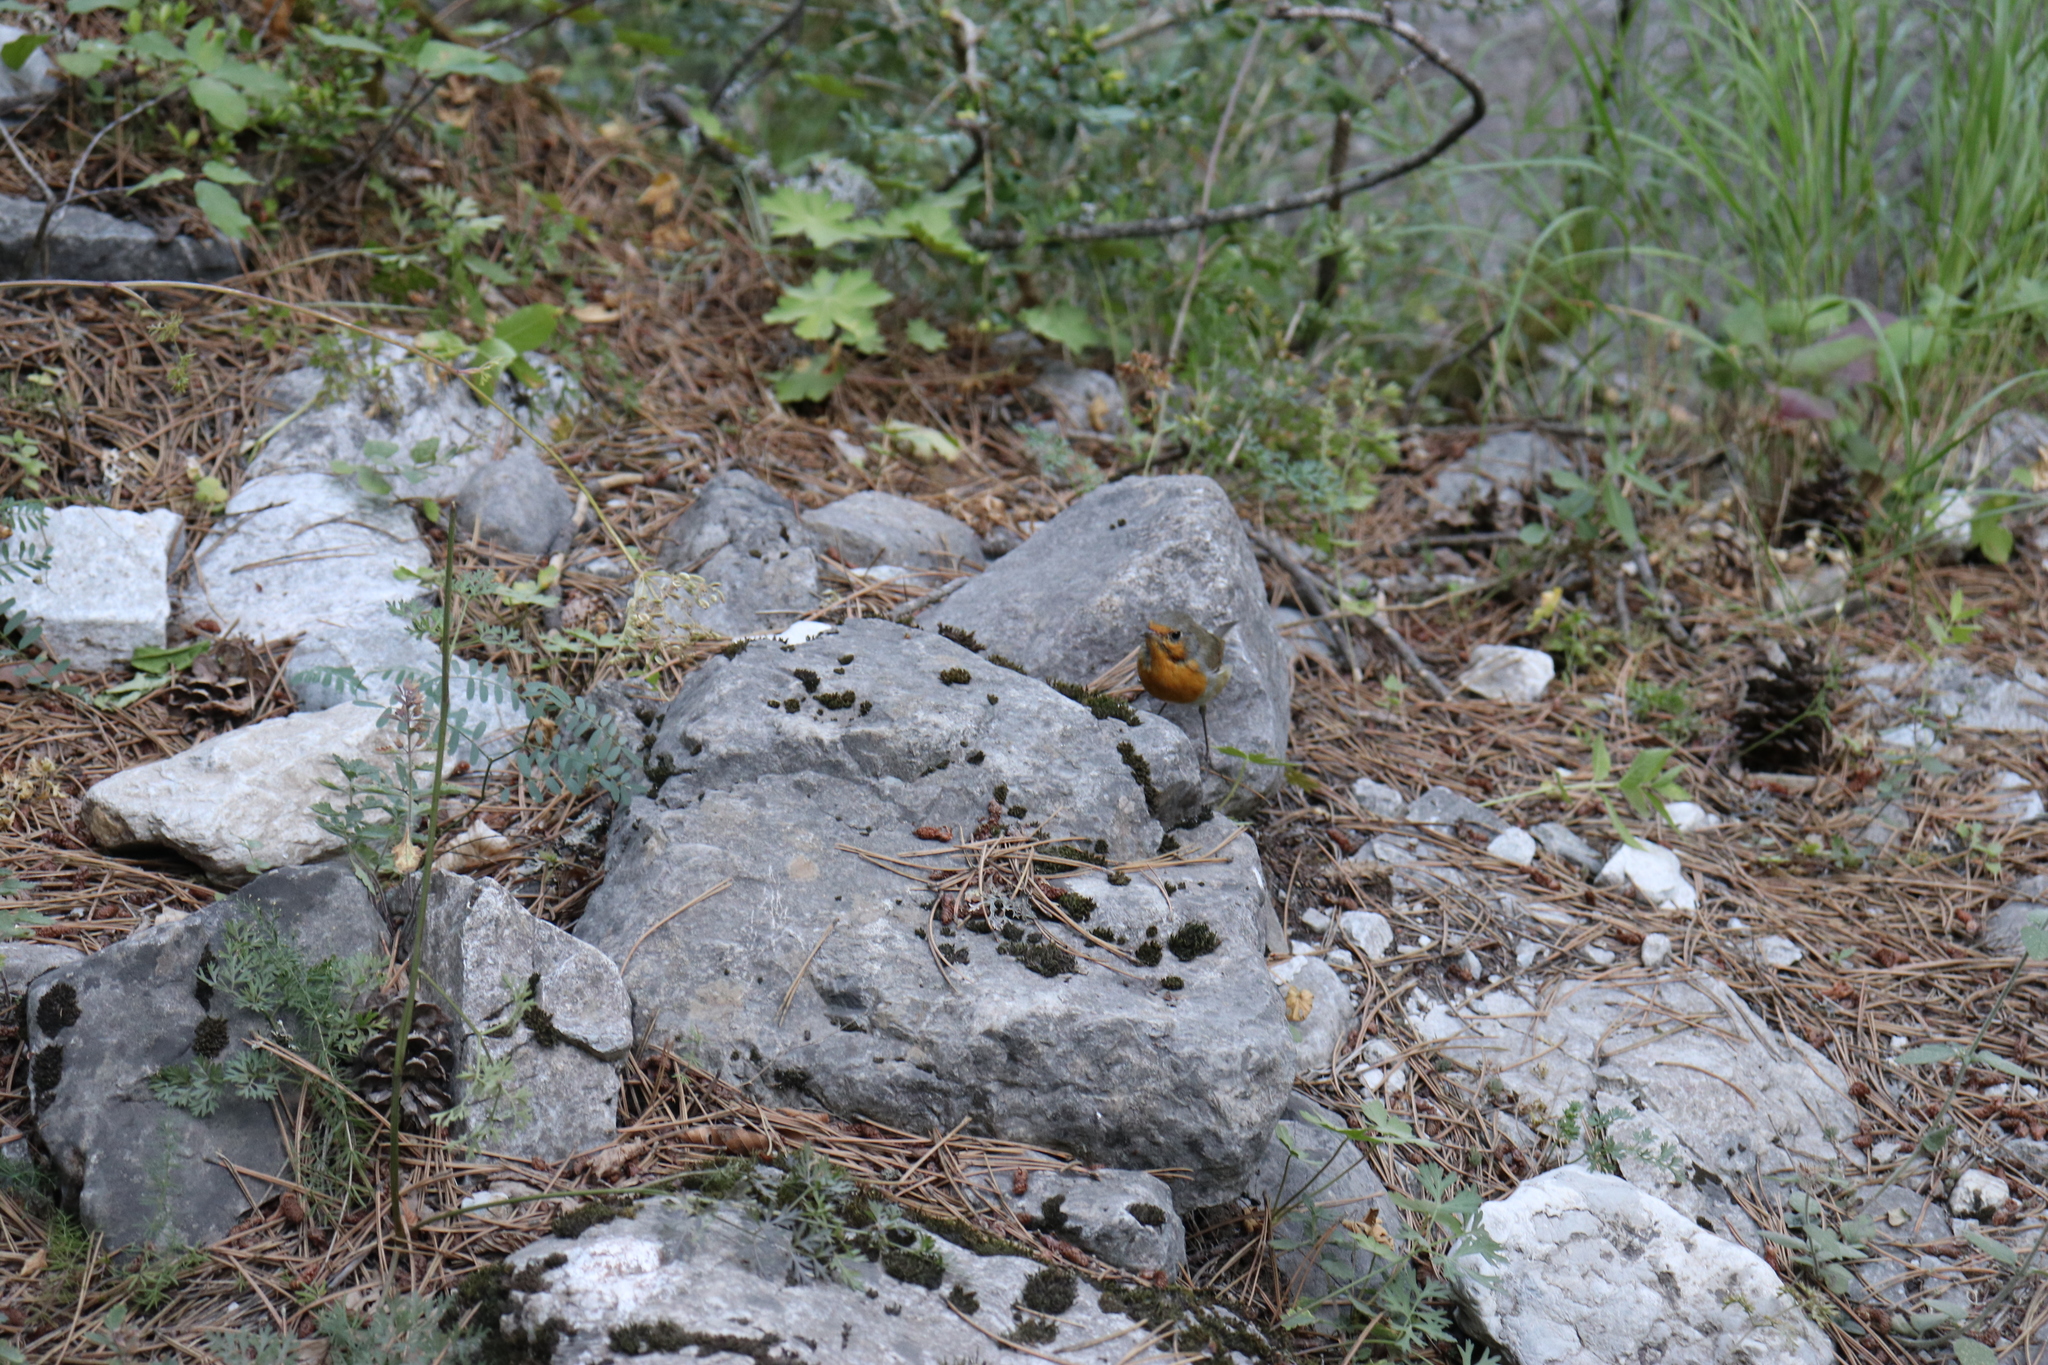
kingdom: Animalia
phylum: Chordata
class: Aves
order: Passeriformes
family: Muscicapidae
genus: Erithacus
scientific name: Erithacus rubecula
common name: European robin
